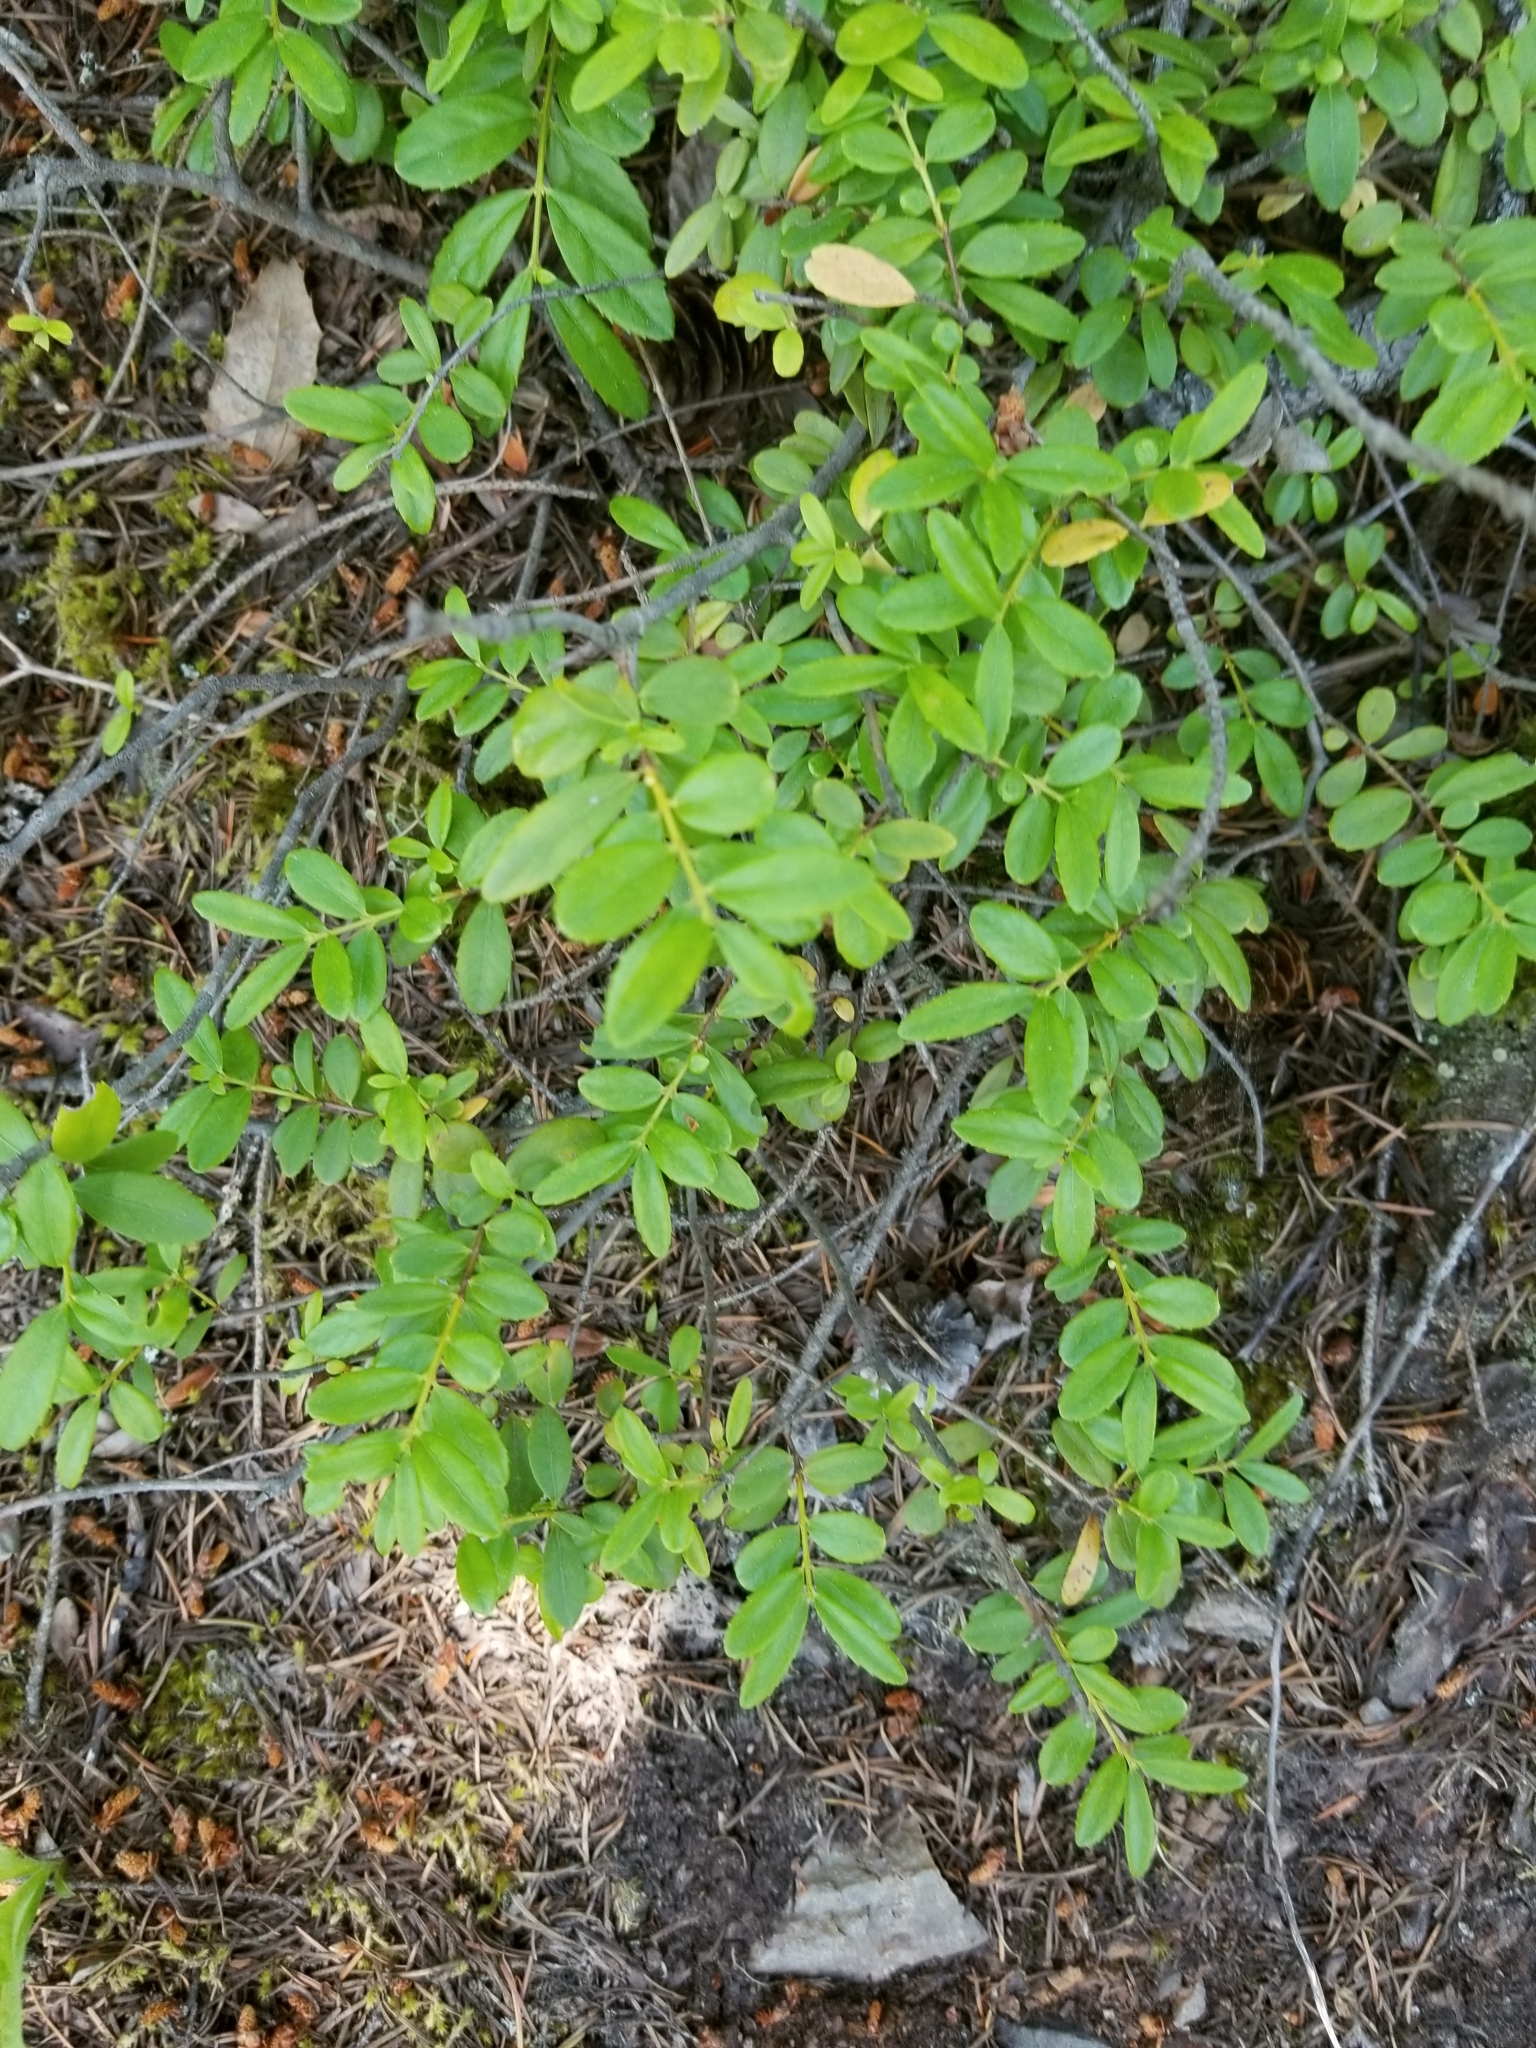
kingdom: Plantae
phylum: Tracheophyta
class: Magnoliopsida
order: Celastrales
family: Celastraceae
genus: Paxistima
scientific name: Paxistima myrsinites
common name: Mountain-lover
